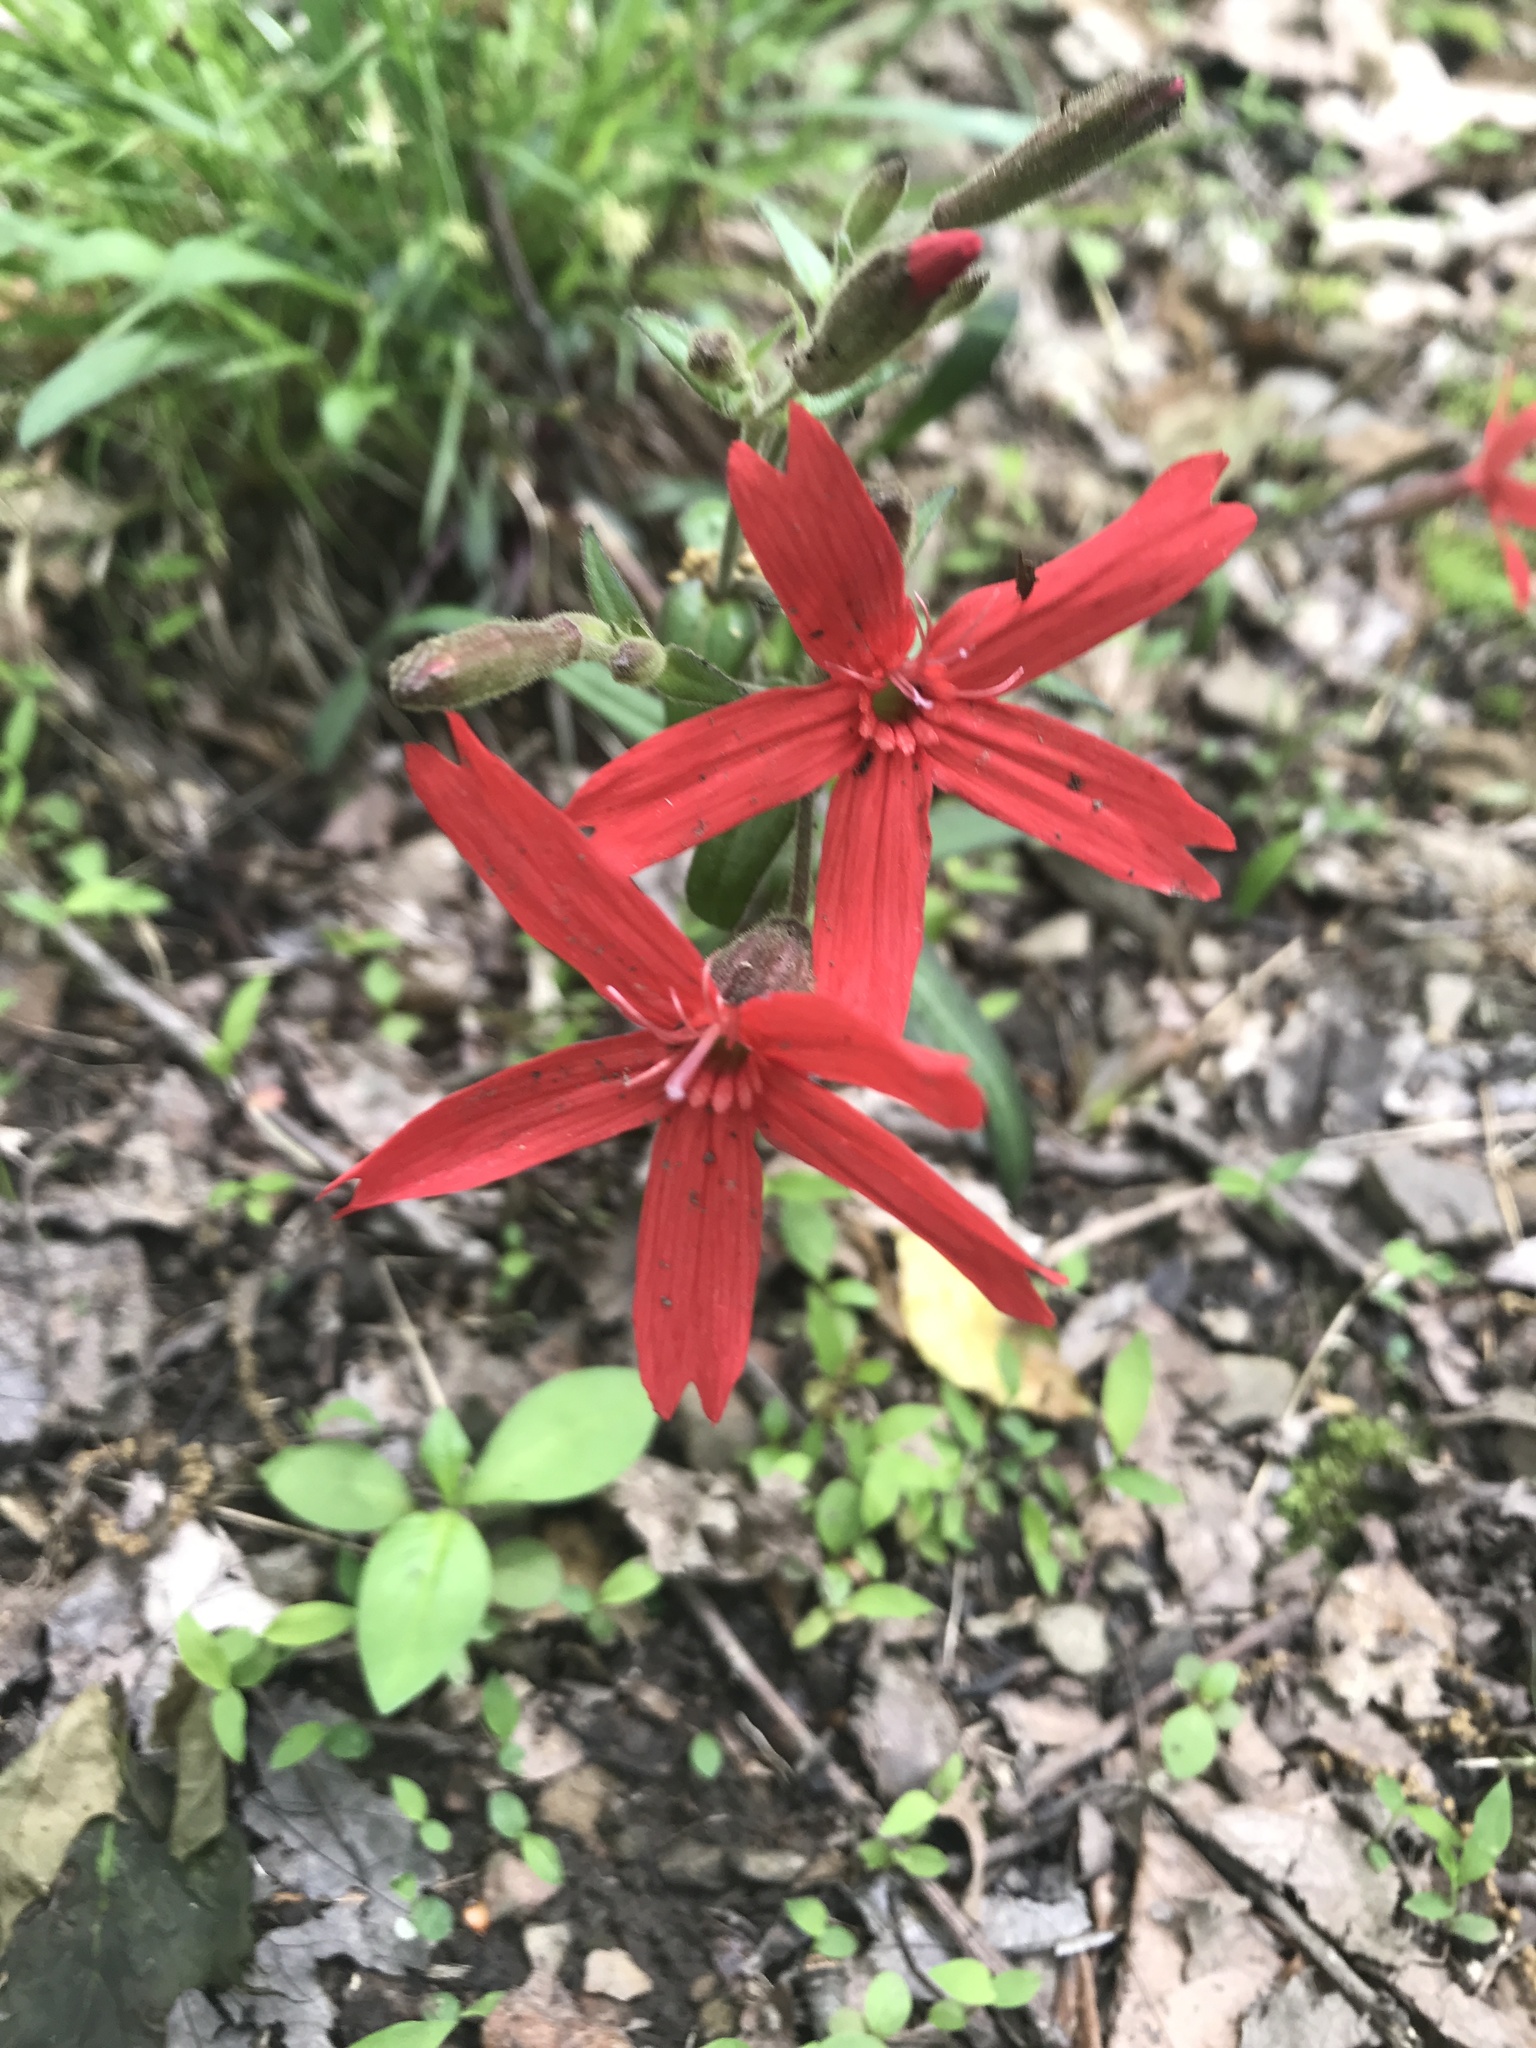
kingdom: Plantae
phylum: Tracheophyta
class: Magnoliopsida
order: Caryophyllales
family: Caryophyllaceae
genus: Silene
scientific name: Silene virginica
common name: Fire-pink
